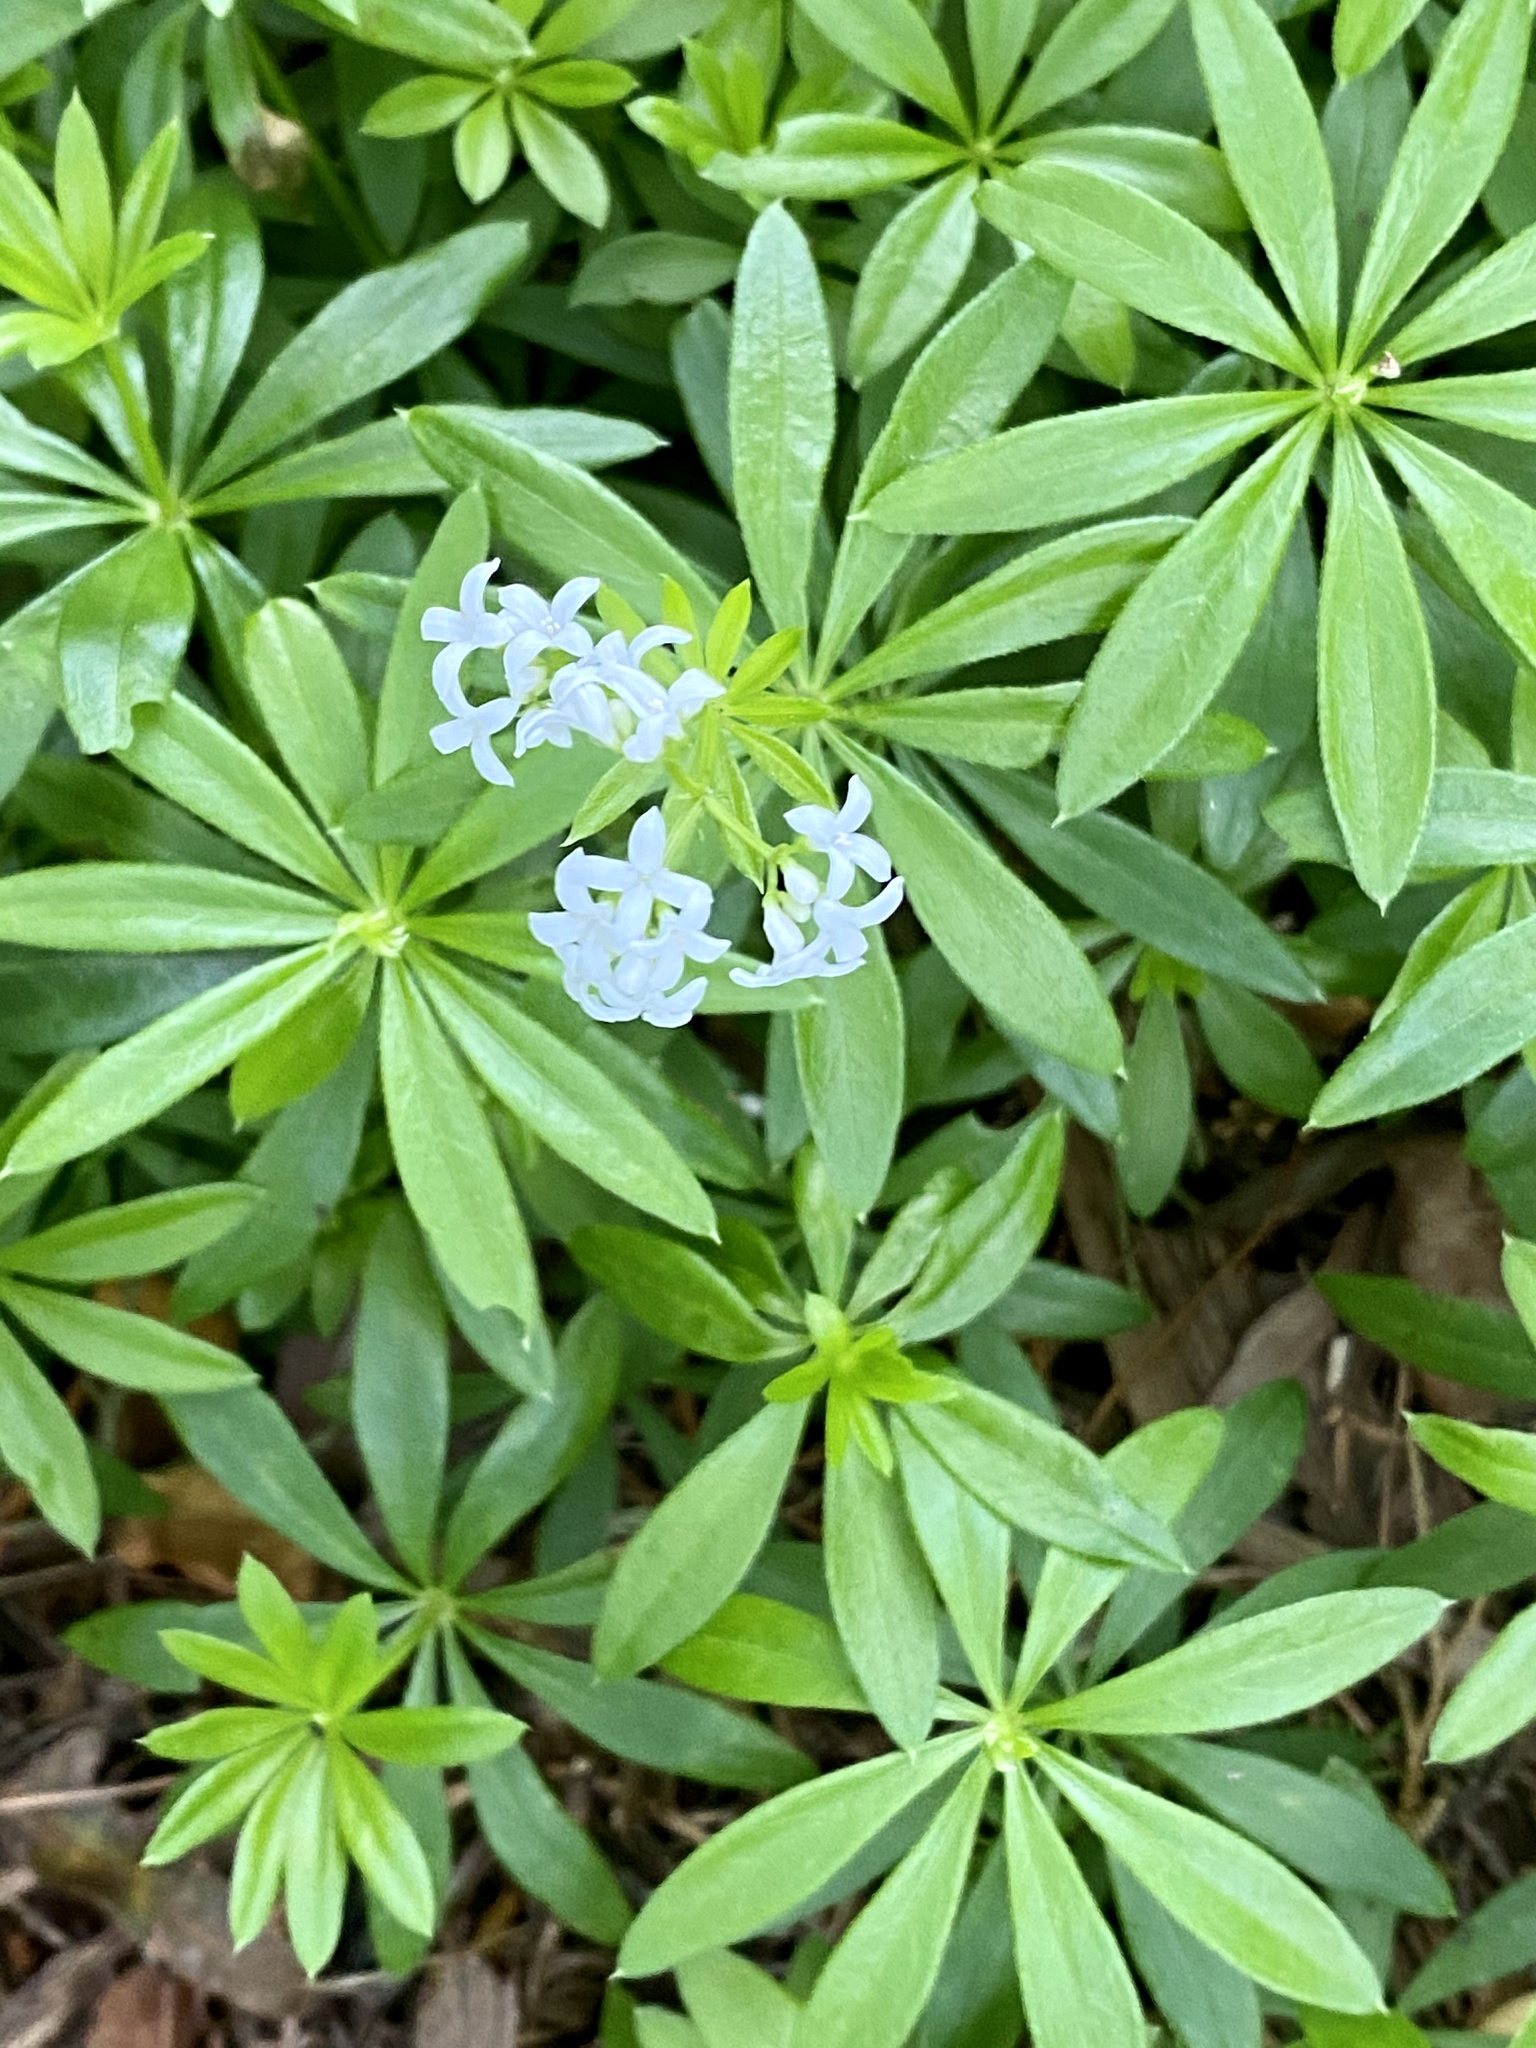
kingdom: Plantae
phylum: Tracheophyta
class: Magnoliopsida
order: Gentianales
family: Rubiaceae
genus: Galium
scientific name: Galium odoratum
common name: Sweet woodruff
